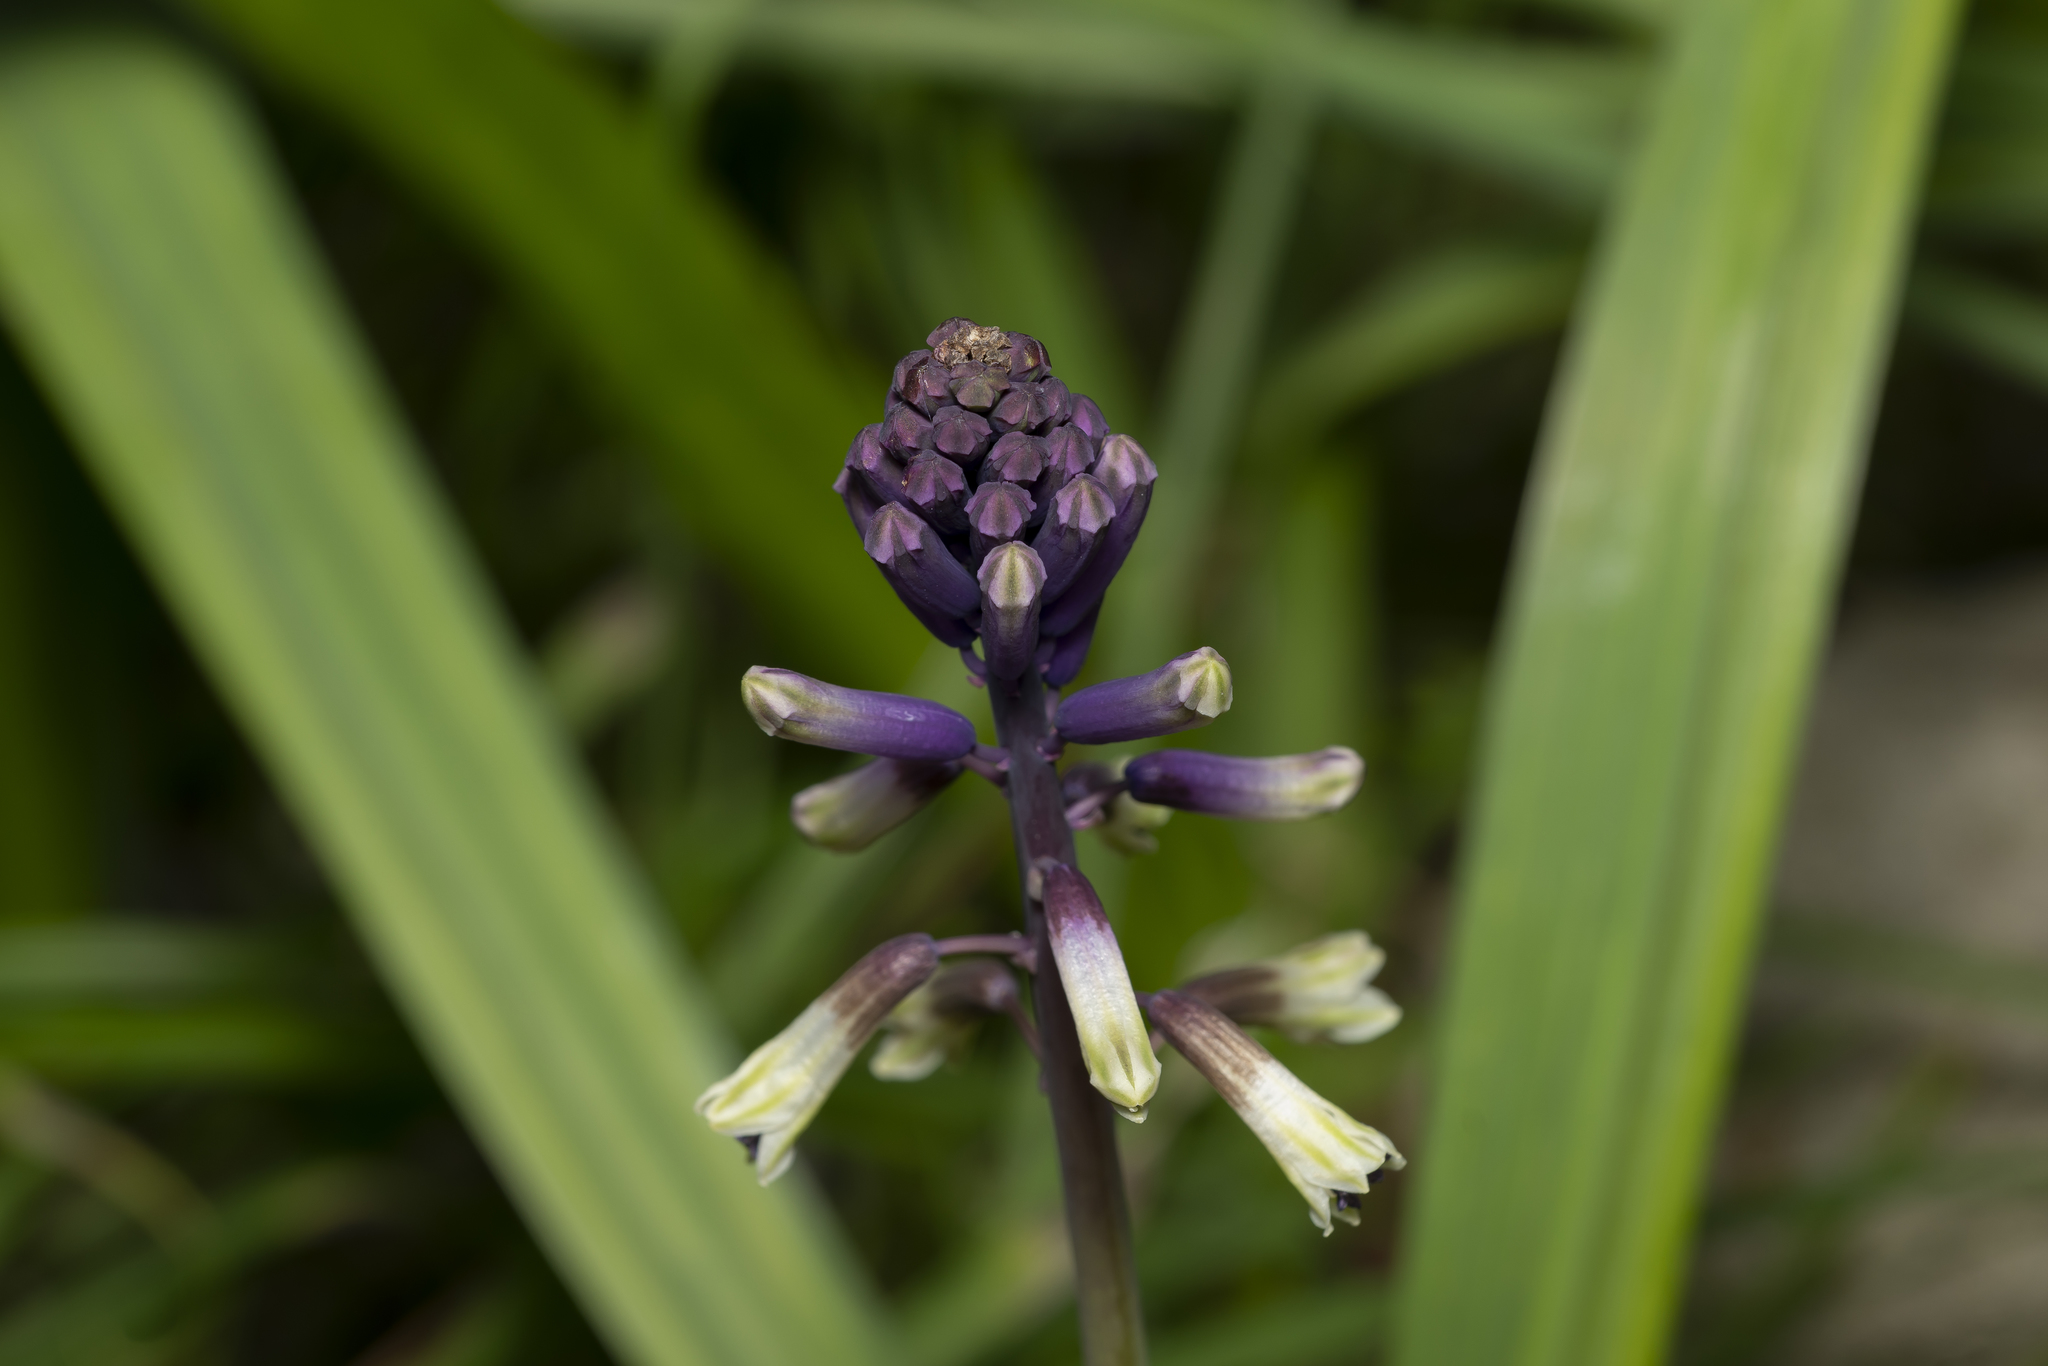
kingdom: Plantae
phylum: Tracheophyta
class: Liliopsida
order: Asparagales
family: Asparagaceae
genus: Bellevalia
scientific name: Bellevalia trifoliata
